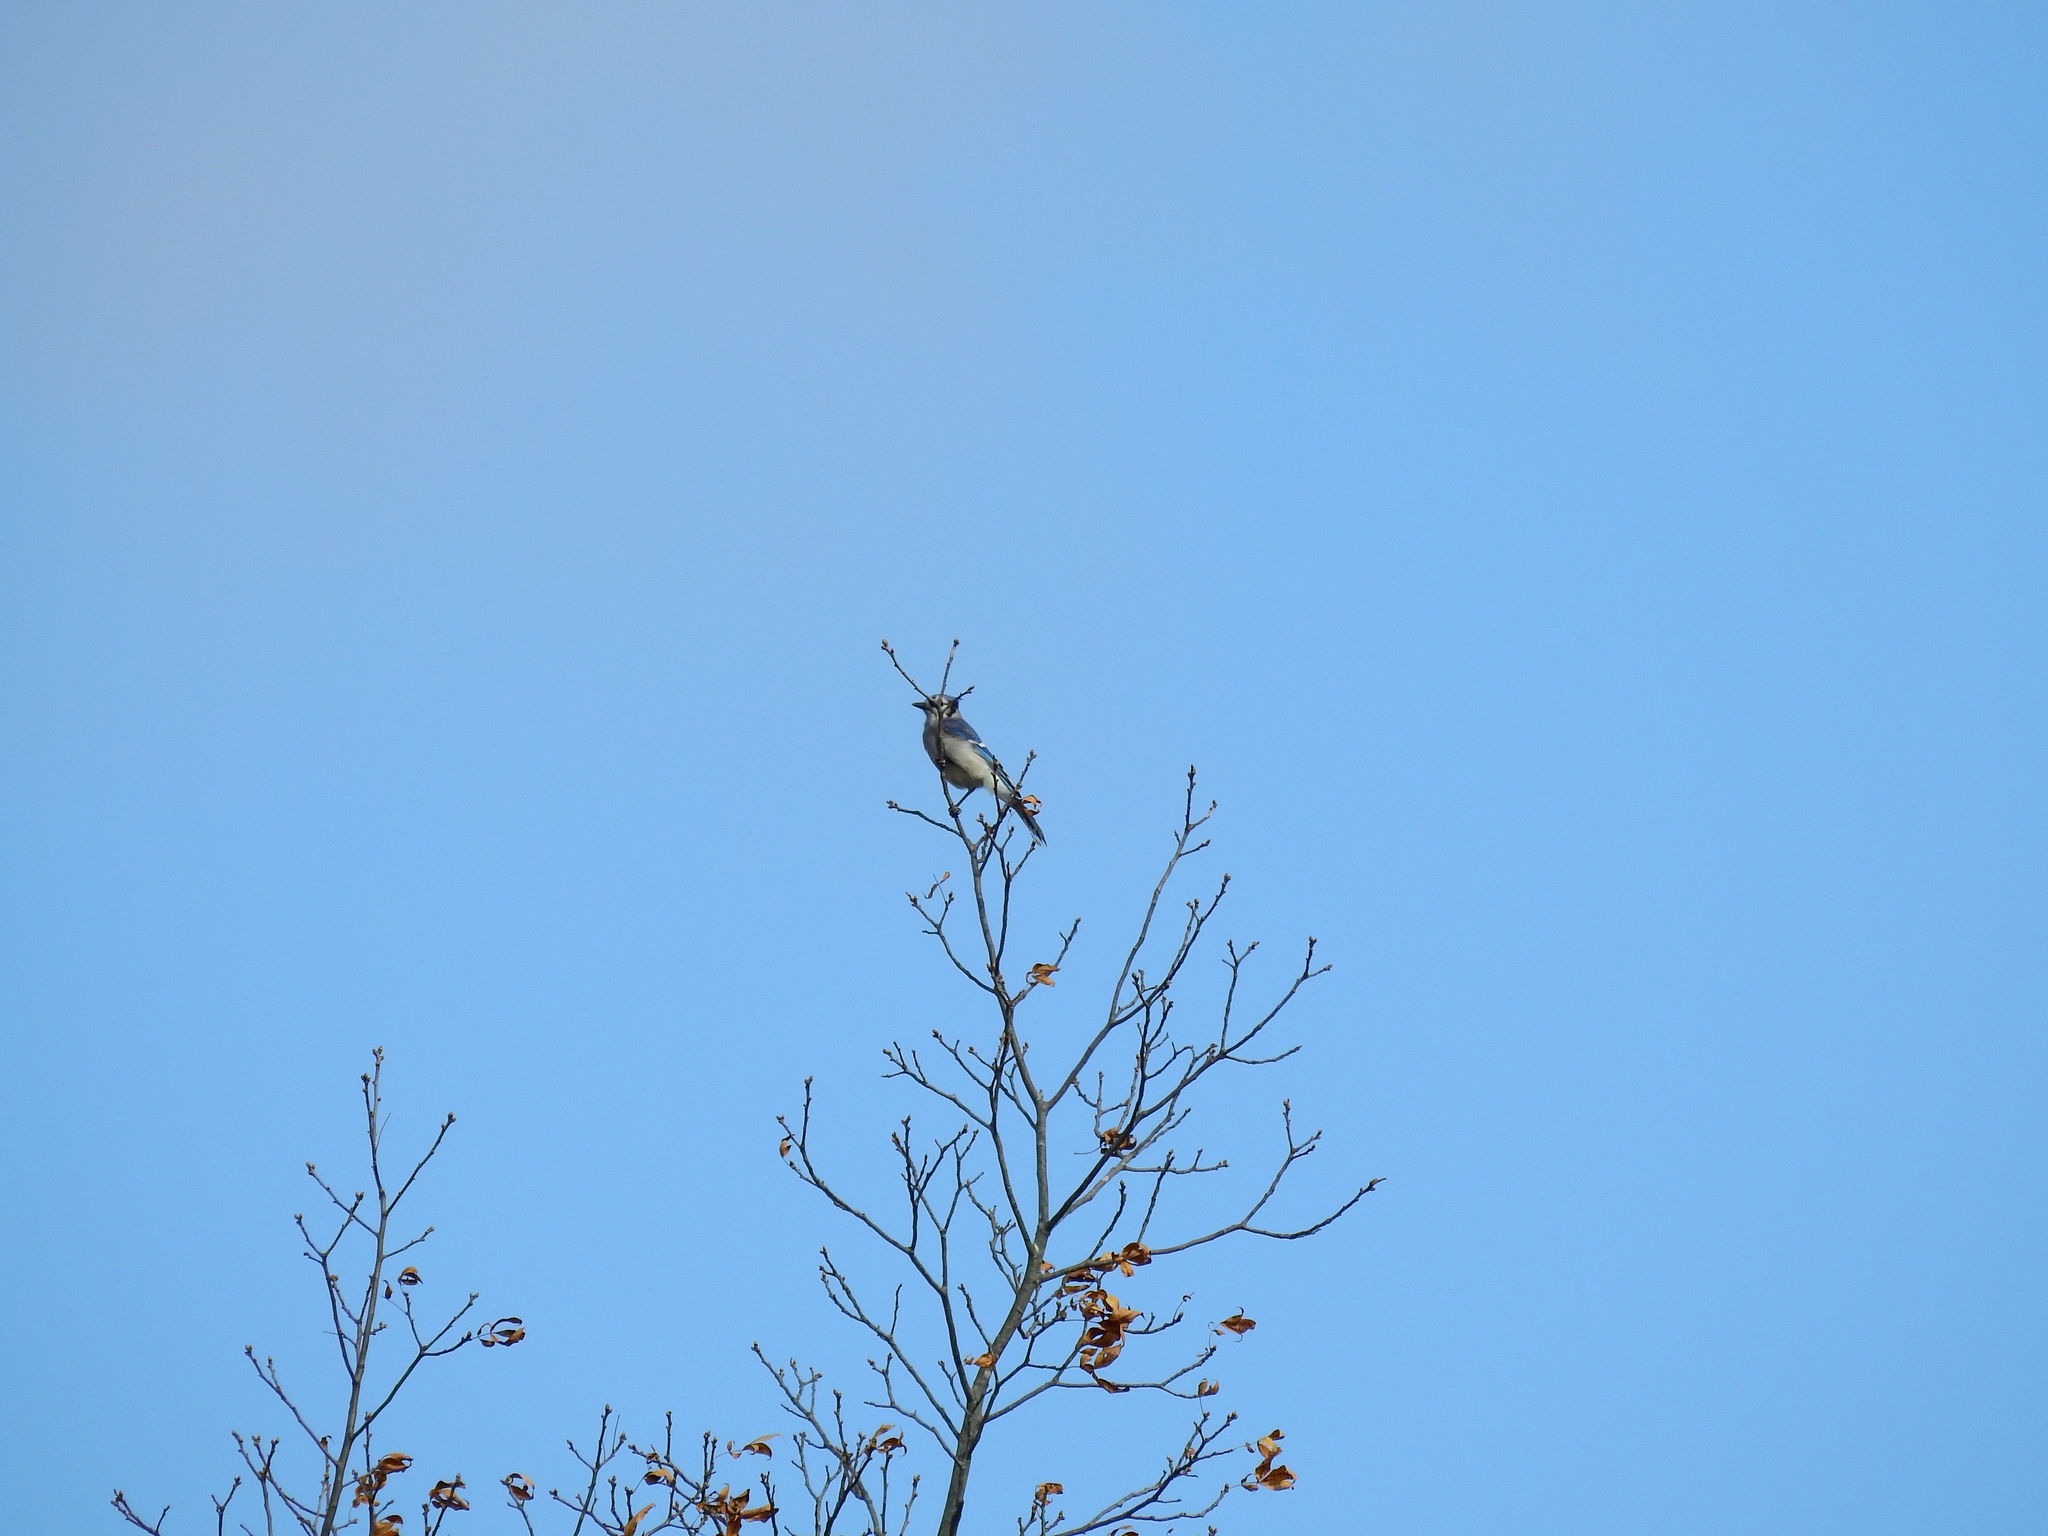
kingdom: Animalia
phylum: Chordata
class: Aves
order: Passeriformes
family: Corvidae
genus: Cyanocitta
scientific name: Cyanocitta cristata
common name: Blue jay
